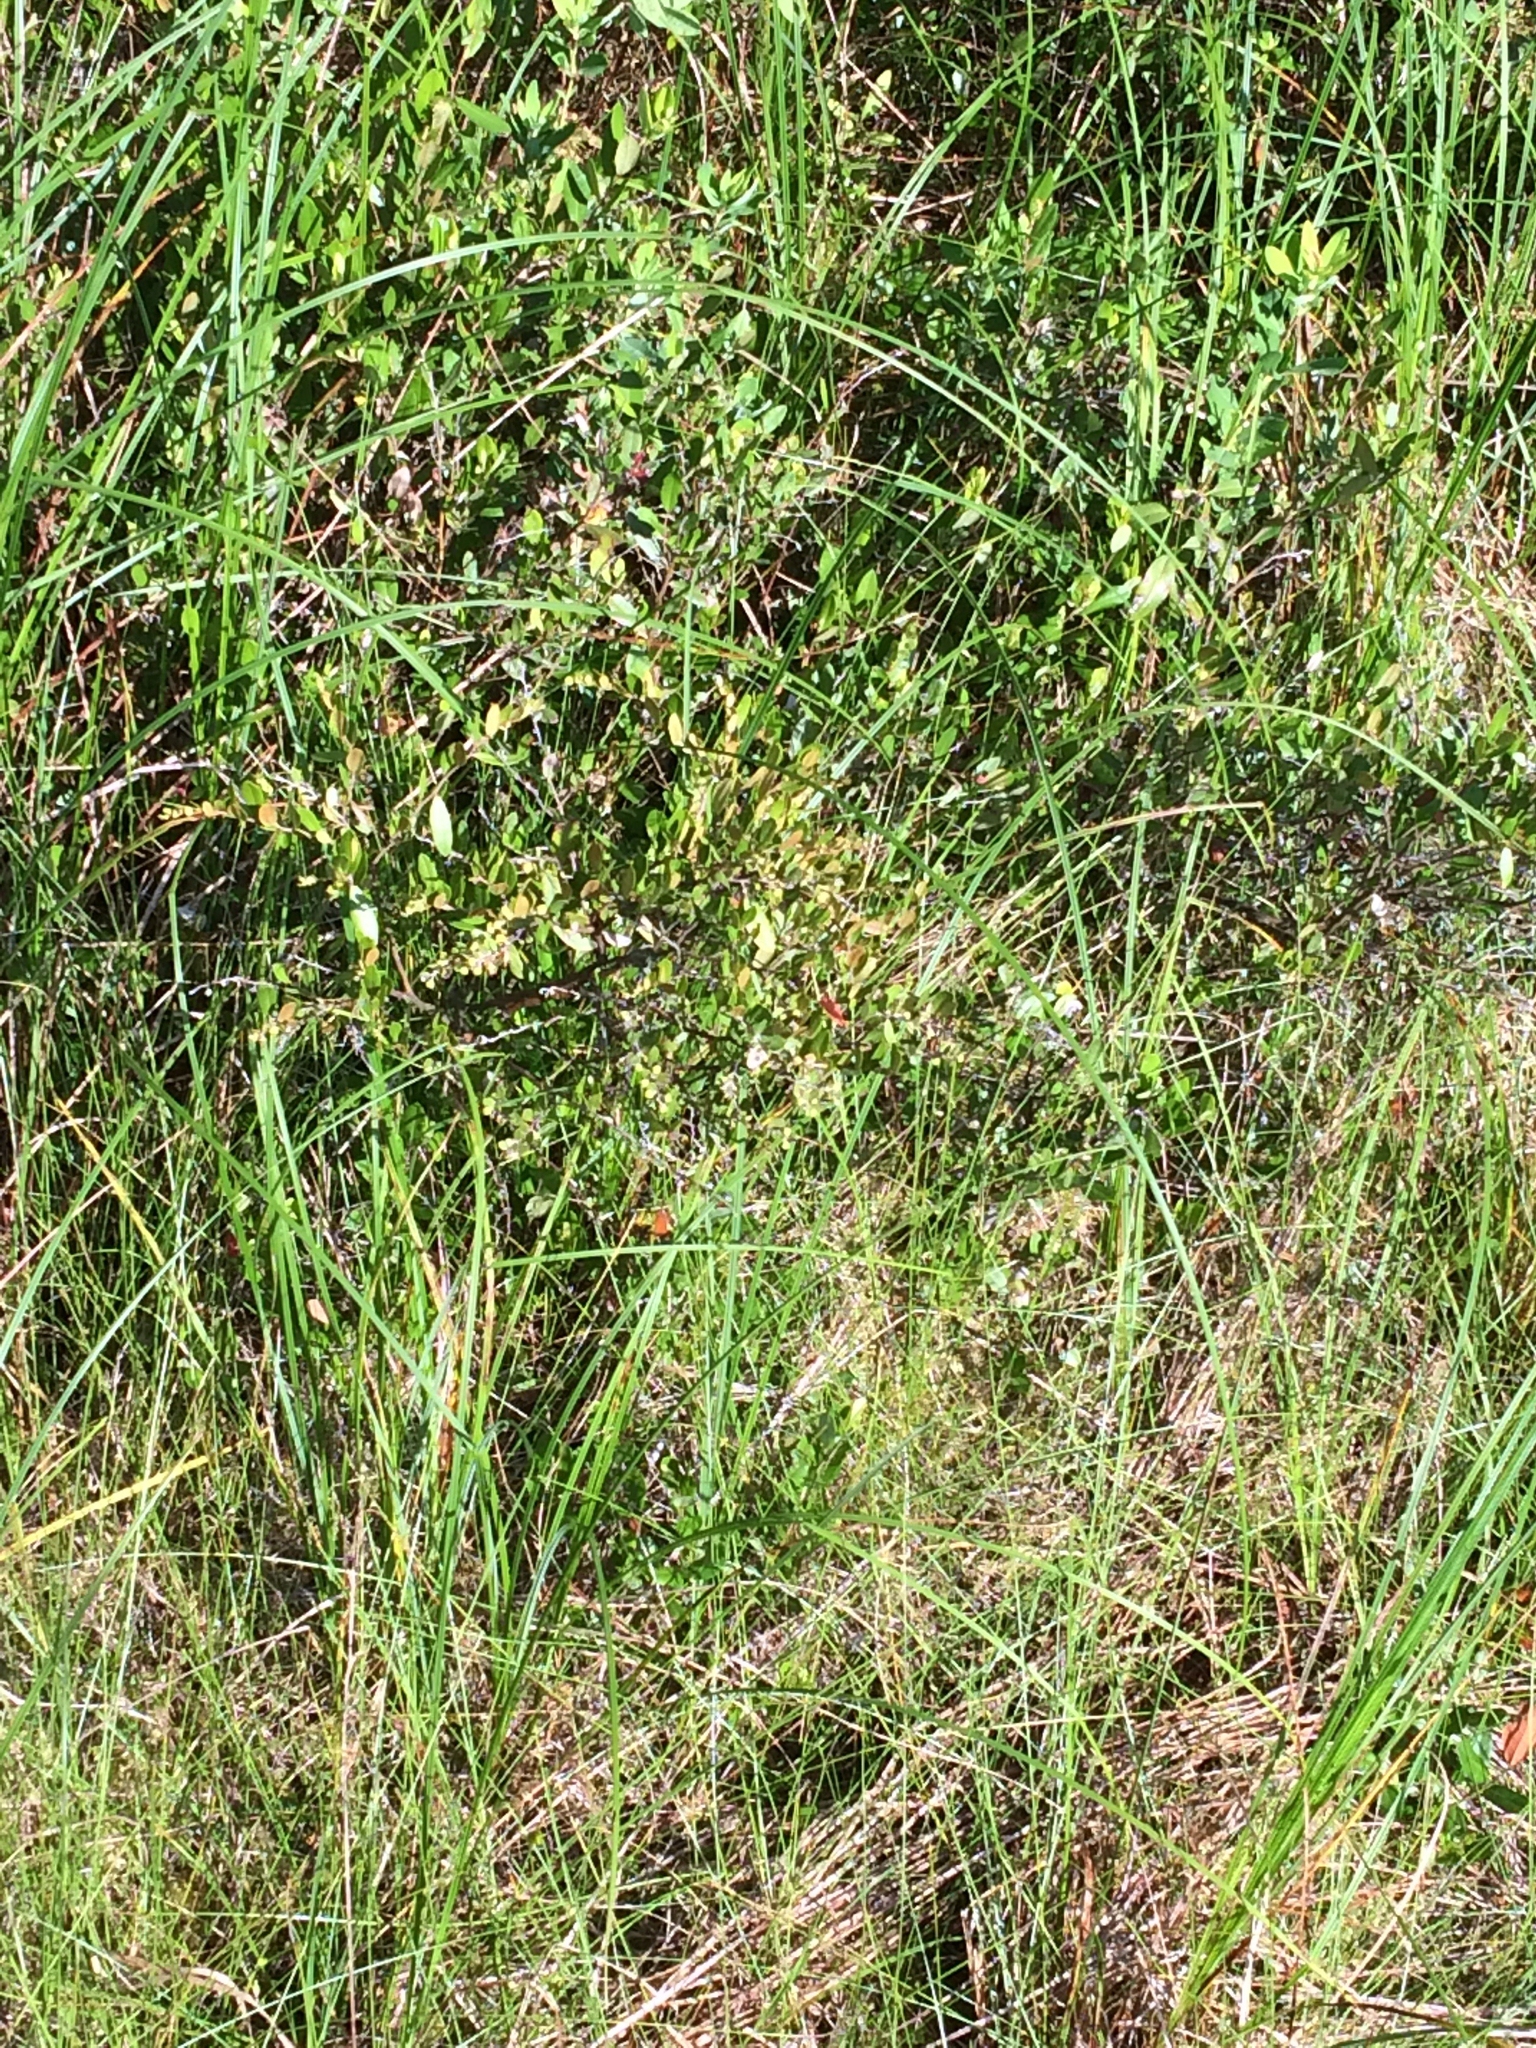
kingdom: Plantae
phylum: Tracheophyta
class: Magnoliopsida
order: Ericales
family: Ericaceae
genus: Chamaedaphne
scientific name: Chamaedaphne calyculata
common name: Leatherleaf
